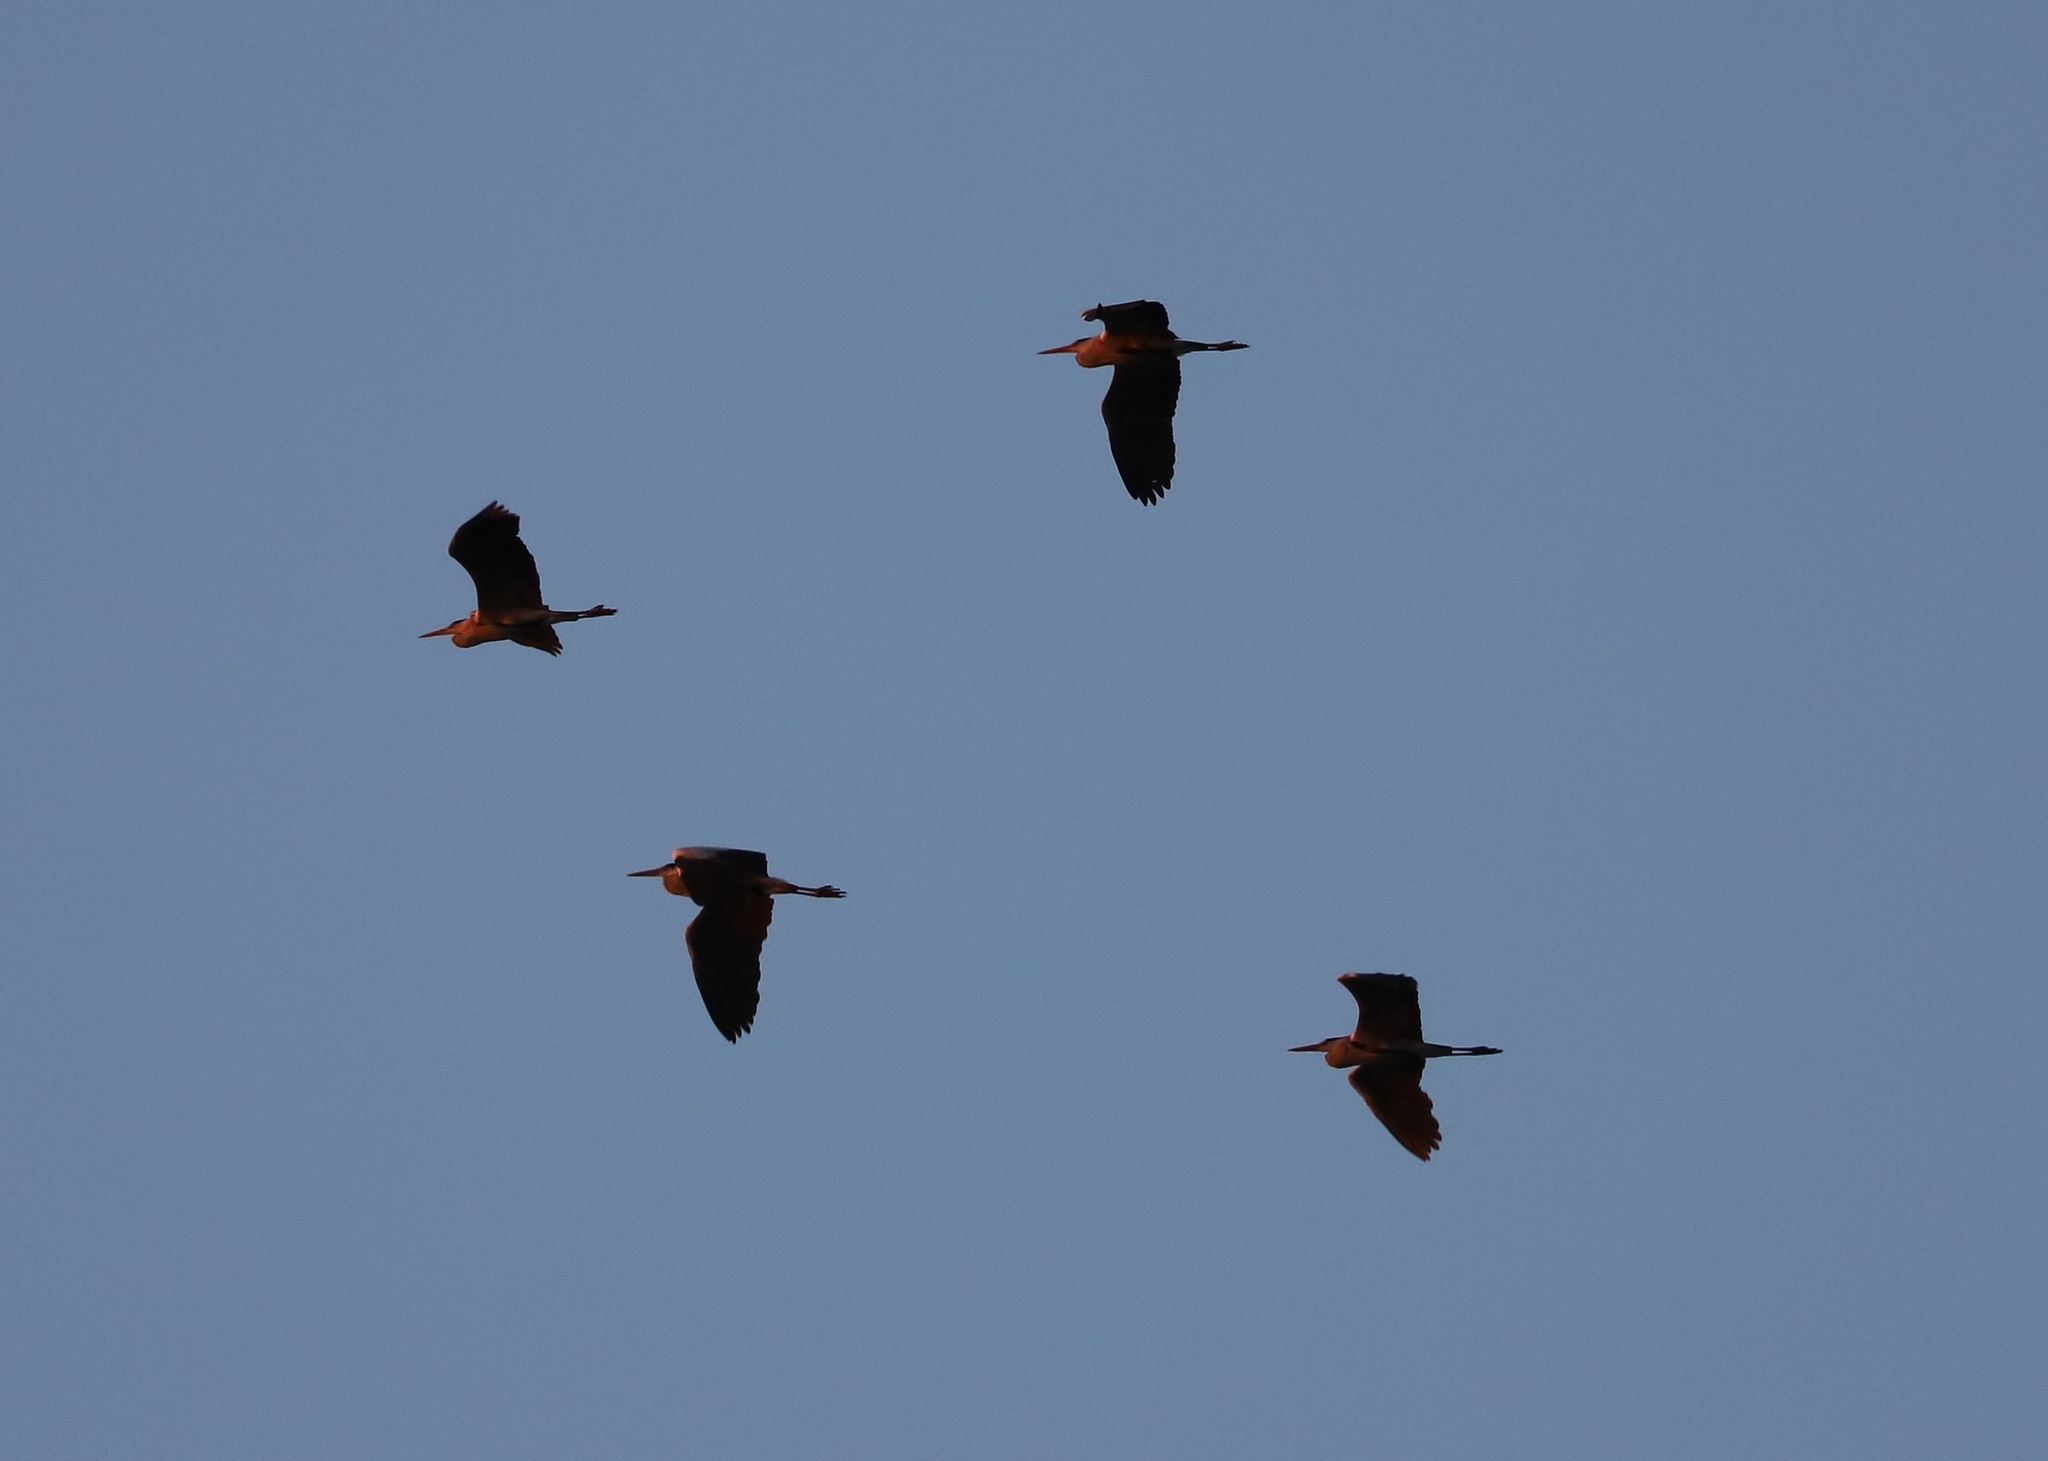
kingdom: Animalia
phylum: Chordata
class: Aves
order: Pelecaniformes
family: Ardeidae
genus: Ardea
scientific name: Ardea cinerea
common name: Grey heron
